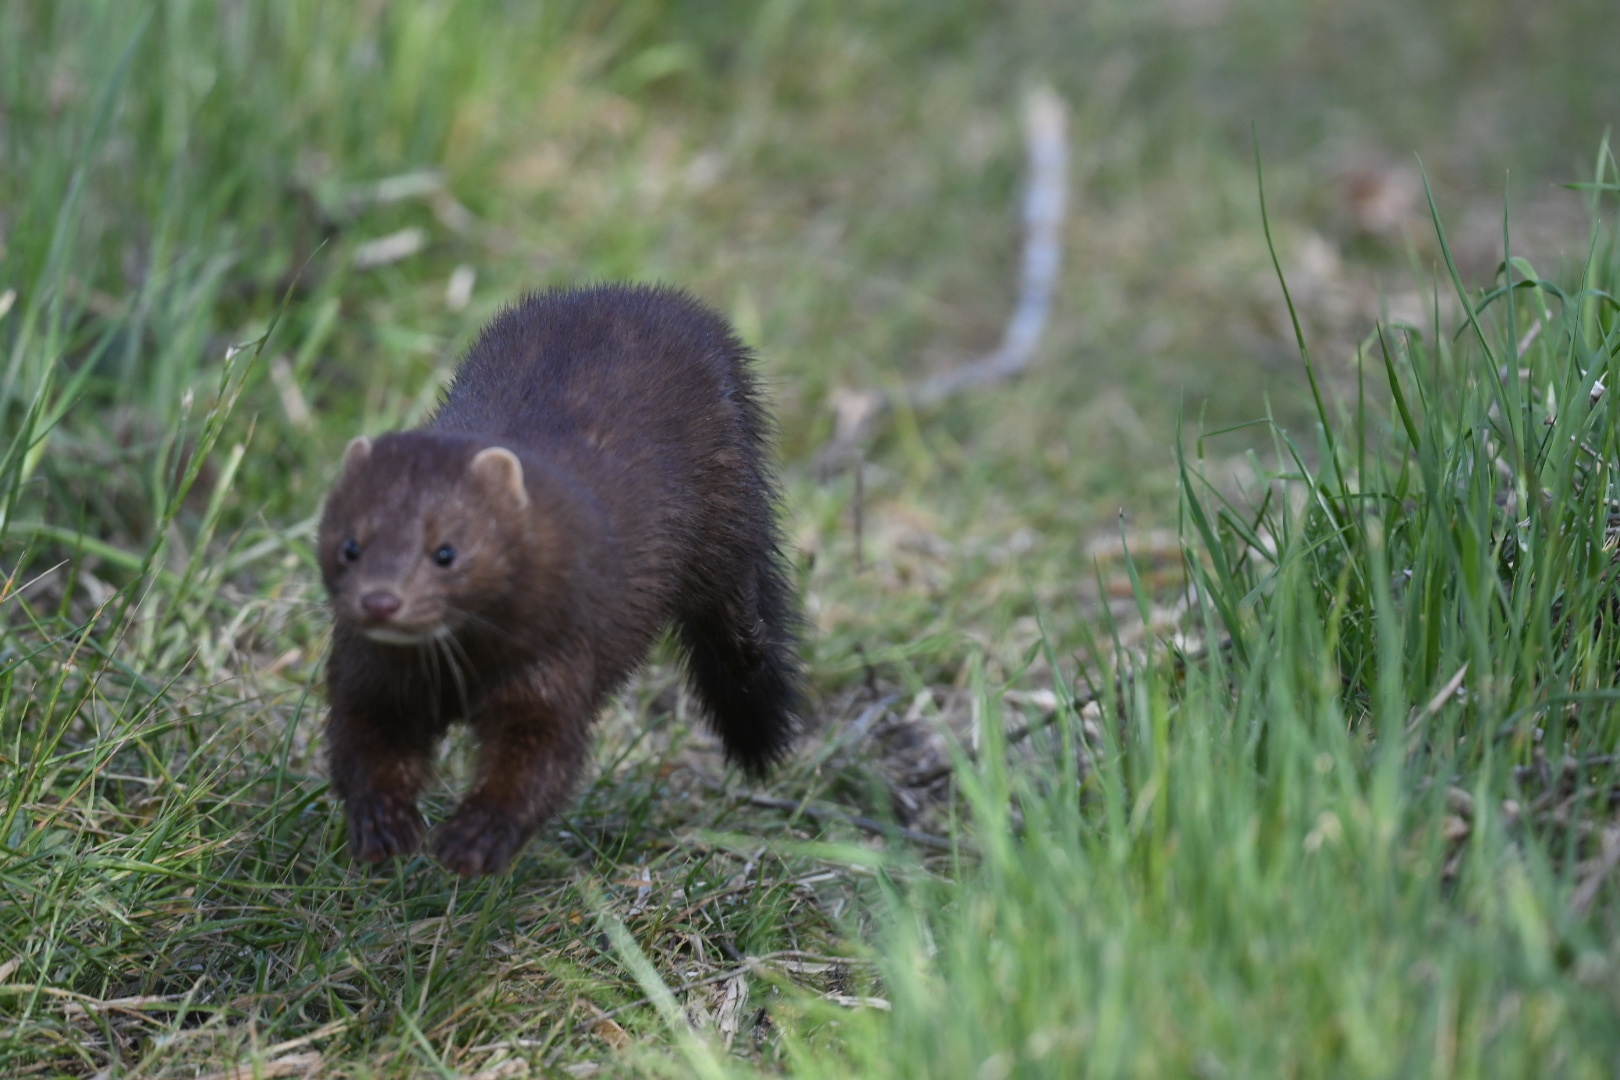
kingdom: Animalia
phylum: Chordata
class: Mammalia
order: Carnivora
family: Mustelidae
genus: Mustela
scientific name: Mustela
